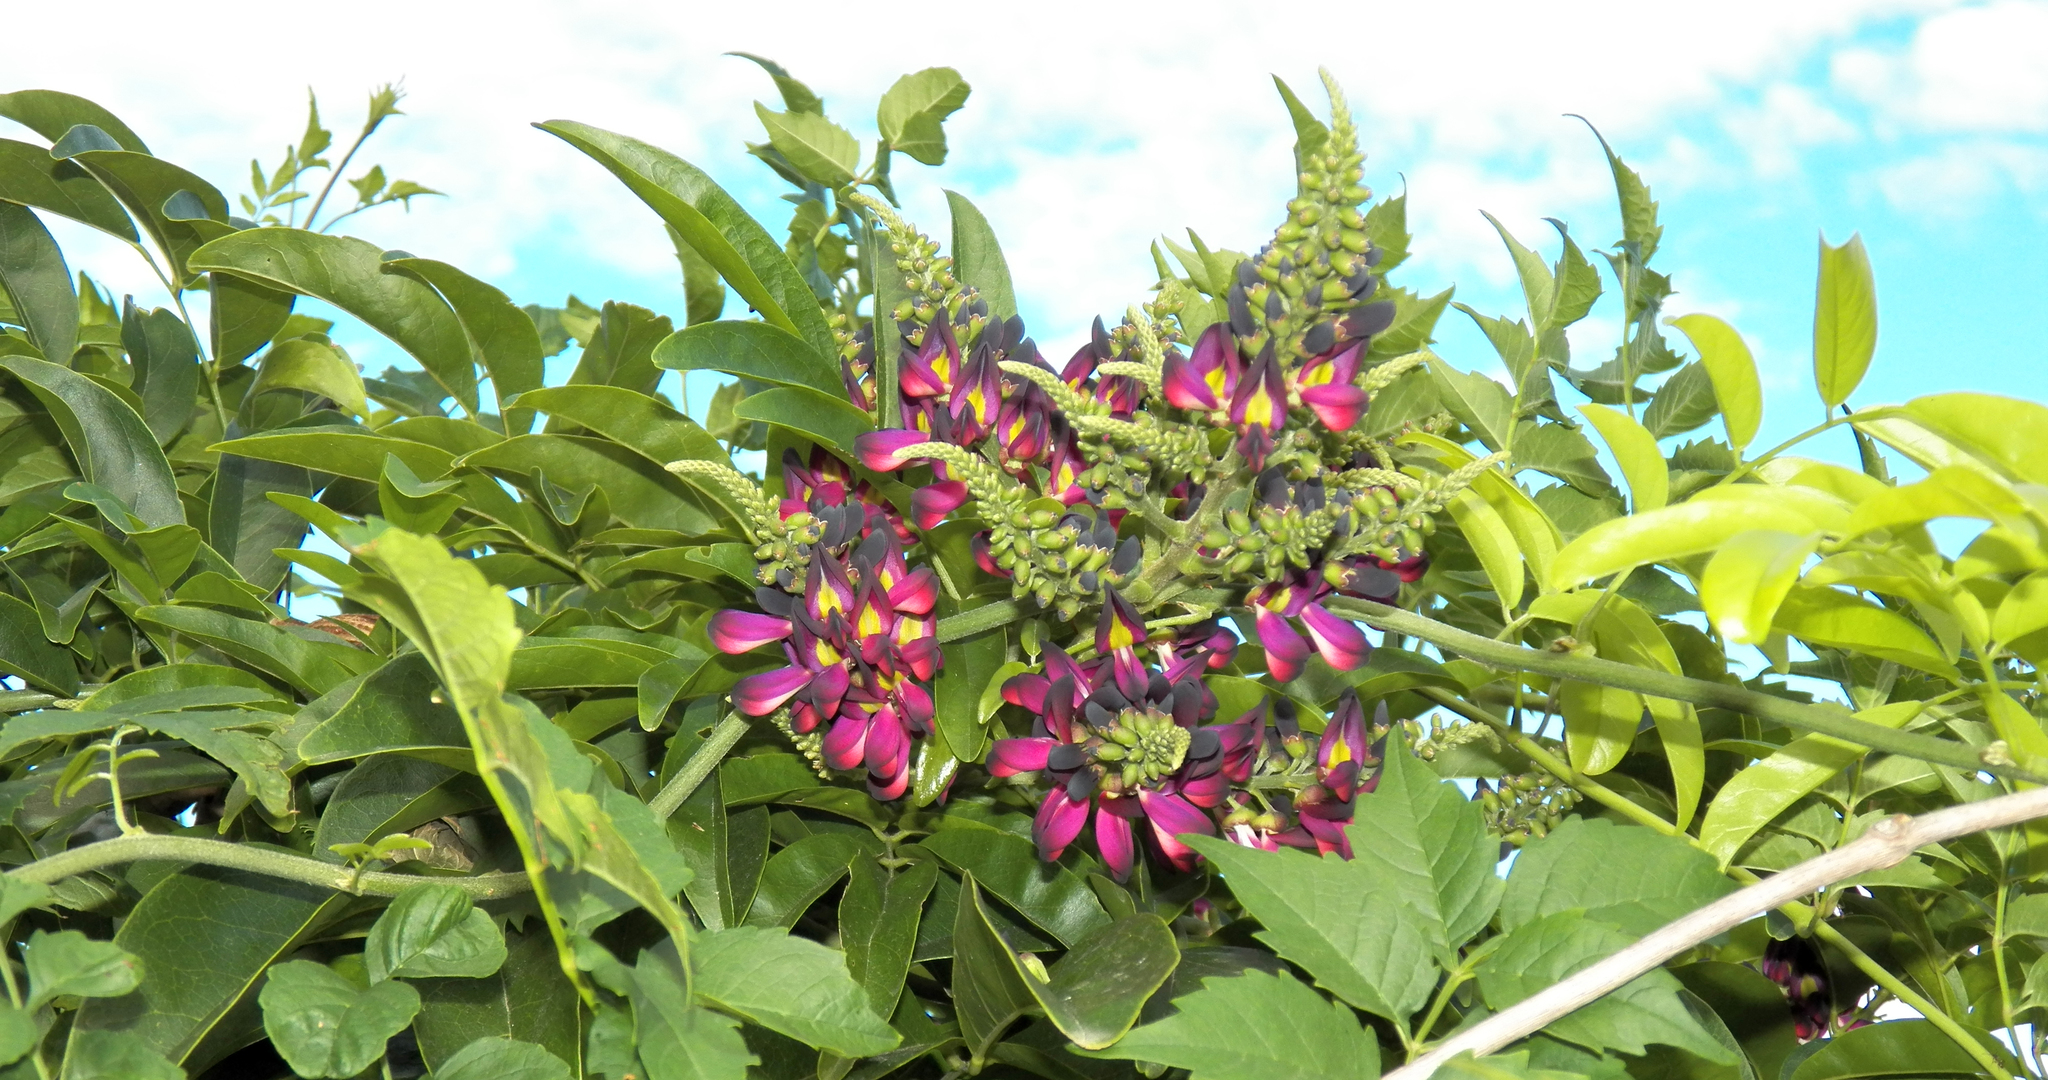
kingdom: Plantae
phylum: Tracheophyta
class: Magnoliopsida
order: Fabales
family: Fabaceae
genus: Wisteriopsis
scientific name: Wisteriopsis reticulata
